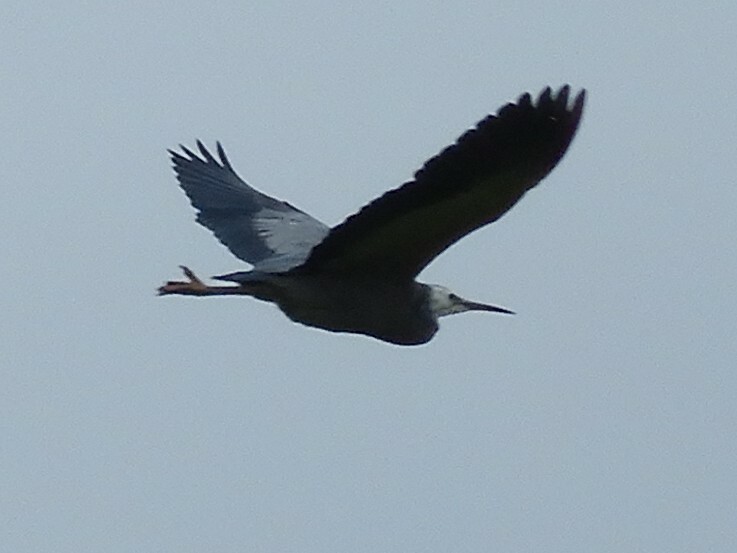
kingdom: Animalia
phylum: Chordata
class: Aves
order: Pelecaniformes
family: Ardeidae
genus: Egretta
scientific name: Egretta novaehollandiae
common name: White-faced heron
